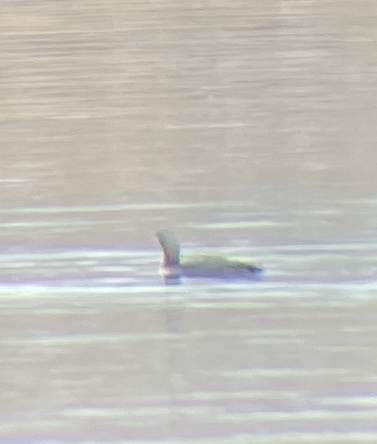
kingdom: Animalia
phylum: Chordata
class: Aves
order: Gaviiformes
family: Gaviidae
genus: Gavia
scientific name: Gavia pacifica
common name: Pacific loon
